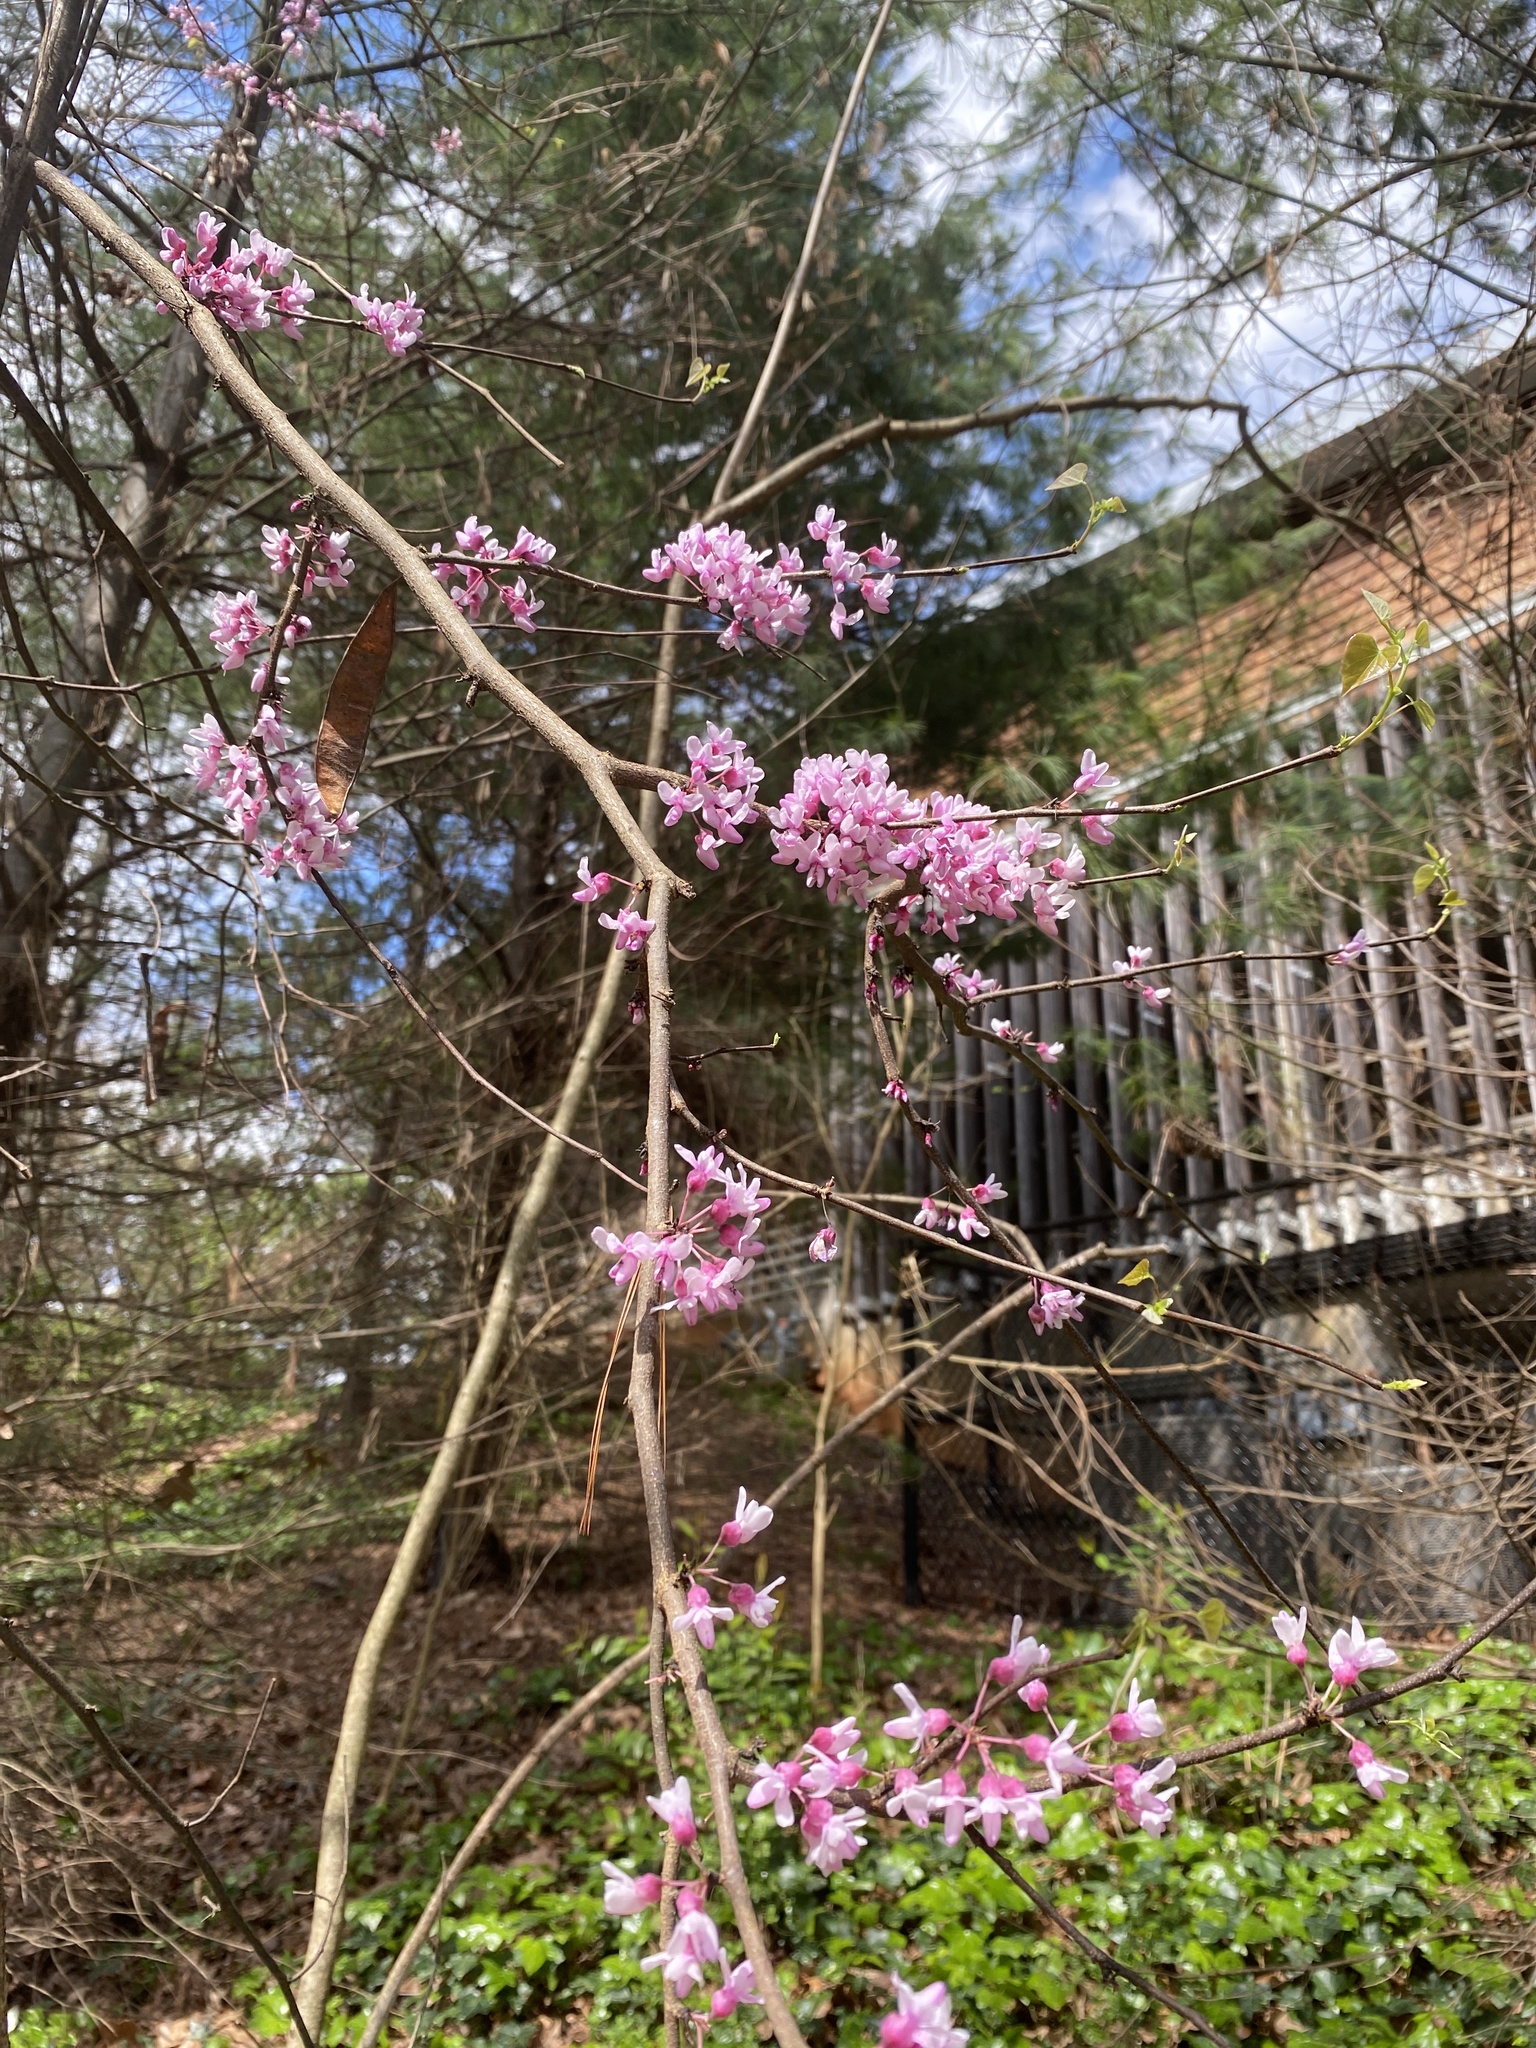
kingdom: Plantae
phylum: Tracheophyta
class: Magnoliopsida
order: Fabales
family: Fabaceae
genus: Cercis
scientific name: Cercis canadensis
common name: Eastern redbud
